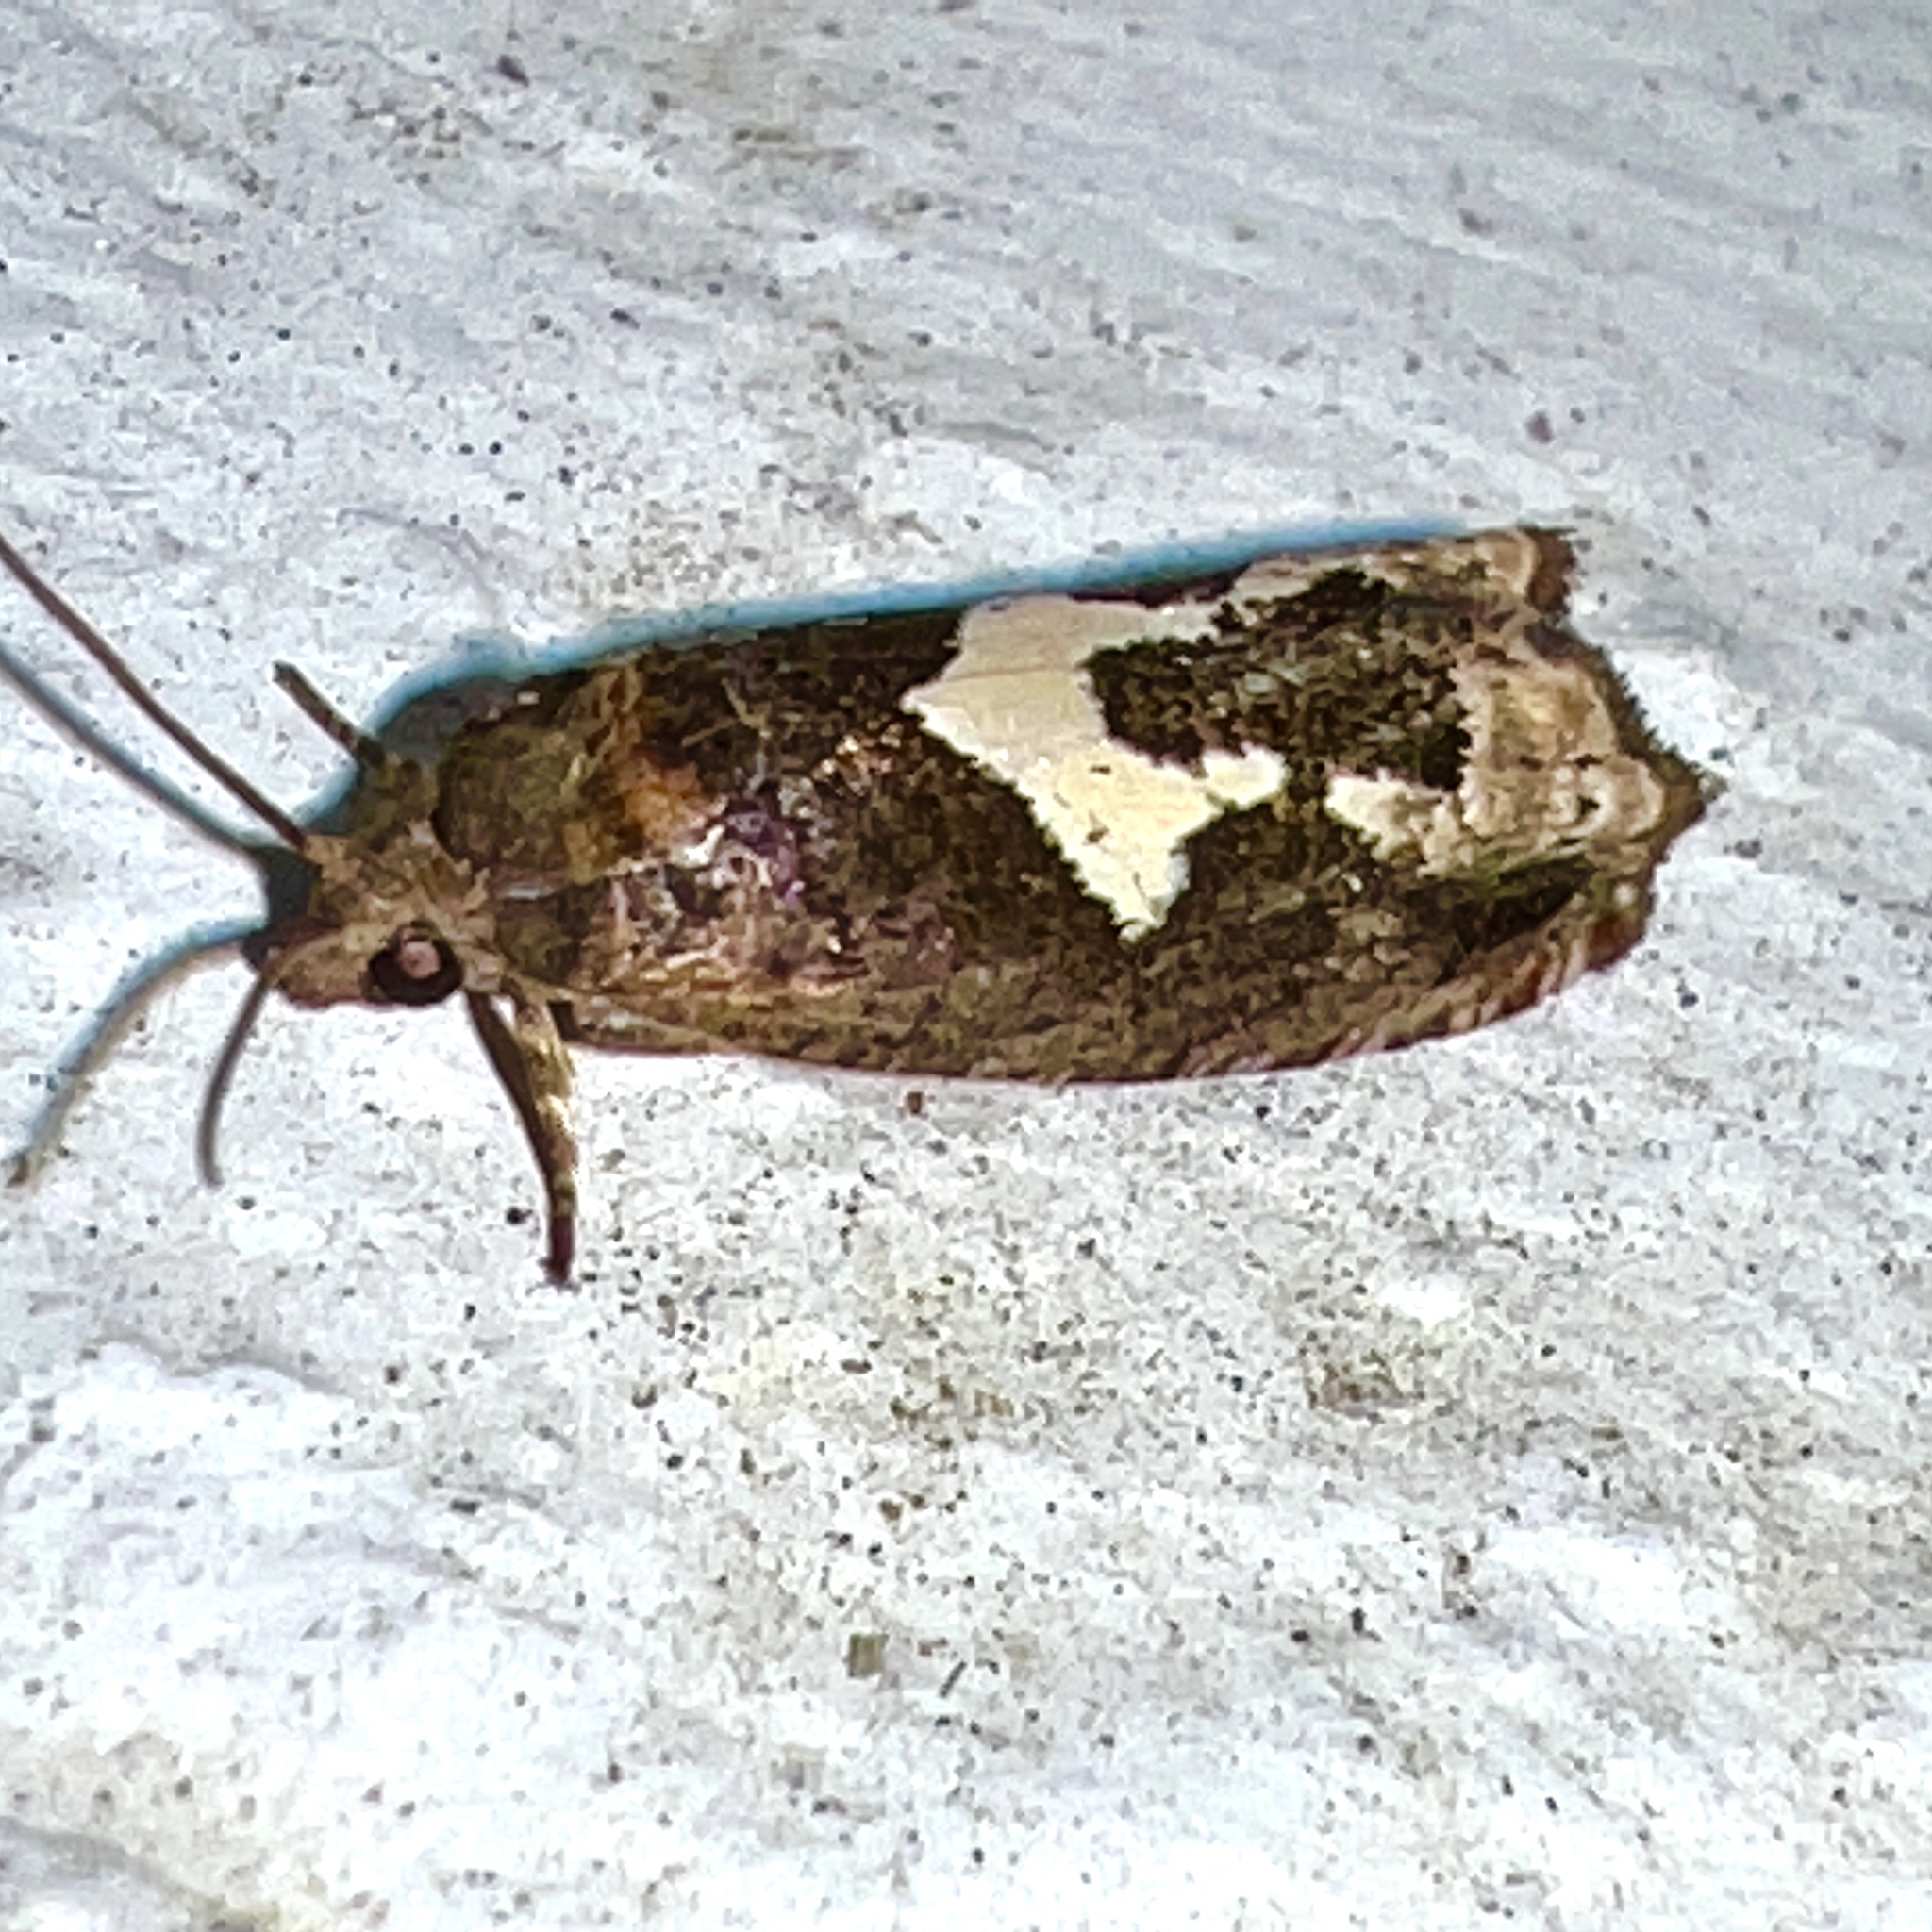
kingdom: Animalia
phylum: Arthropoda
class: Insecta
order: Lepidoptera
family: Tortricidae
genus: Epiblema
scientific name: Epiblema otiosana
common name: Bidens borer moth
